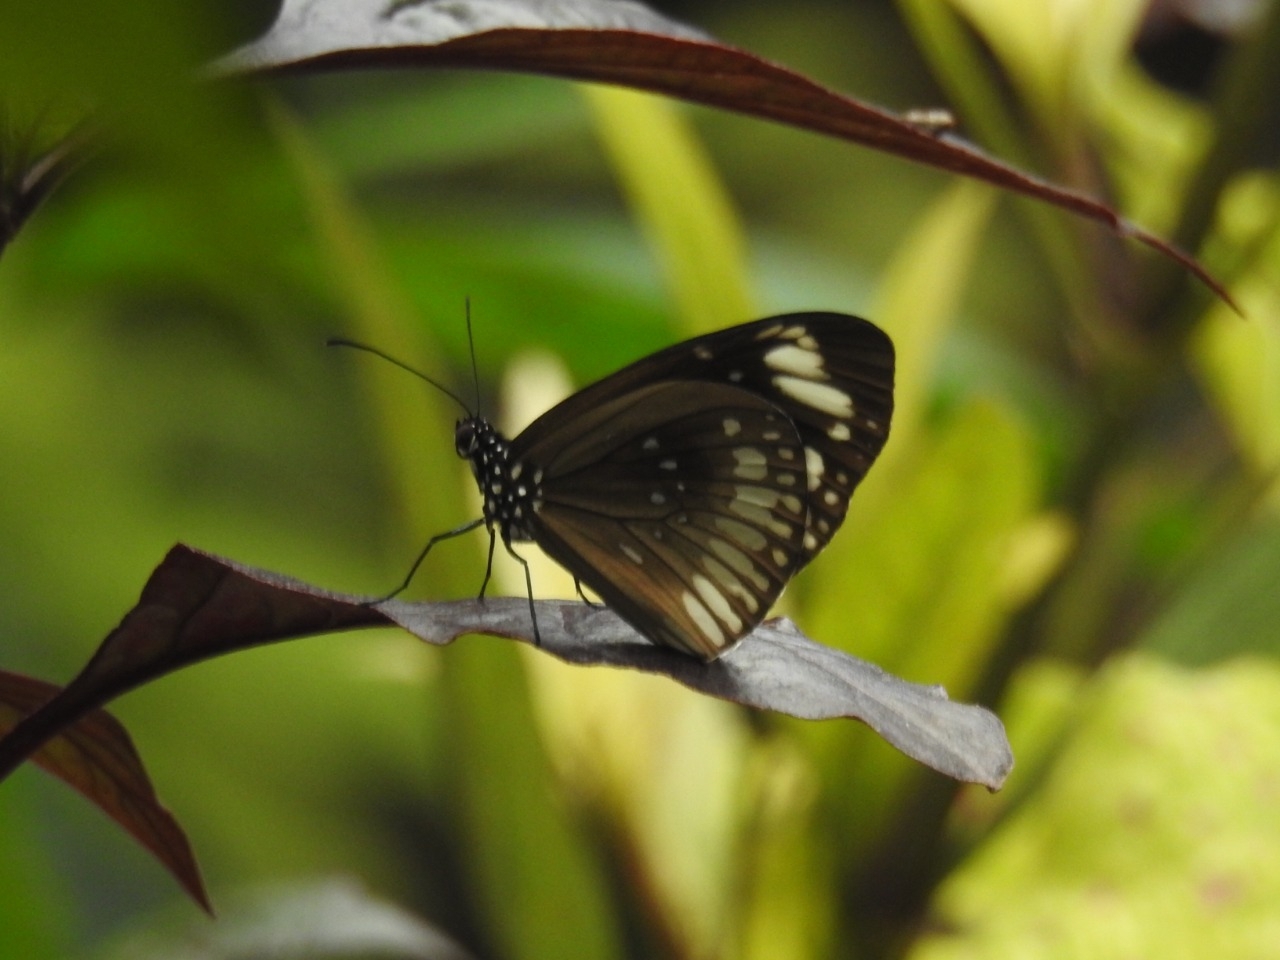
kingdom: Animalia
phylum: Arthropoda
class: Insecta
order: Lepidoptera
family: Nymphalidae
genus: Euploea
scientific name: Euploea algea
